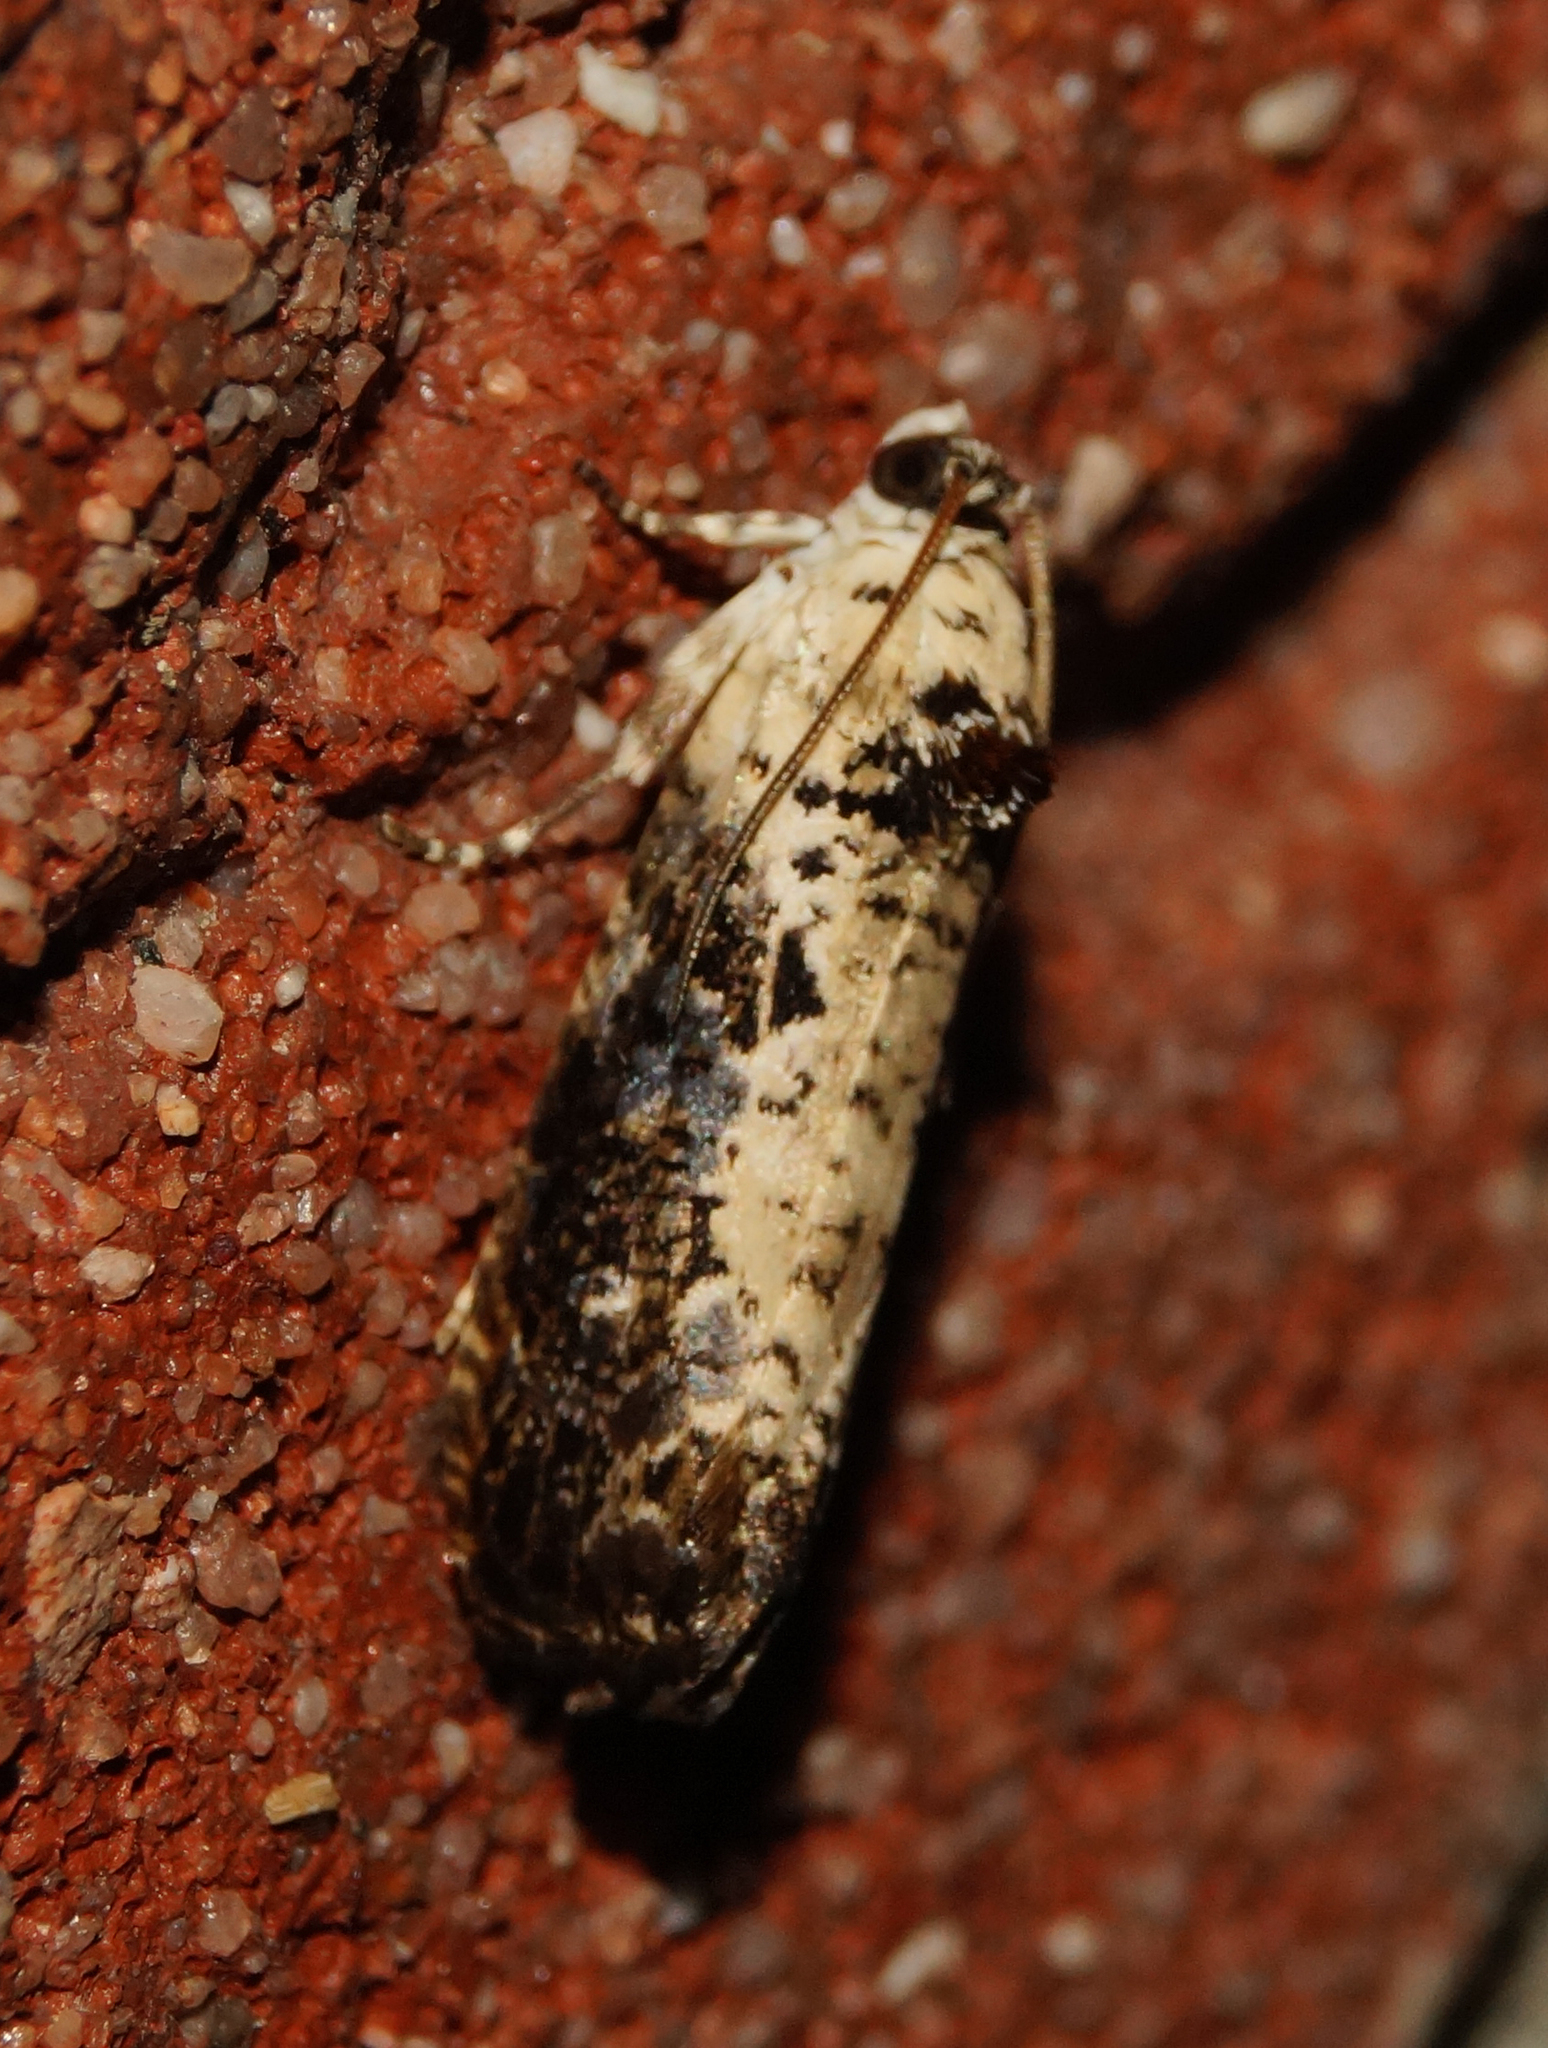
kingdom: Animalia
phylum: Arthropoda
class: Insecta
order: Lepidoptera
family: Tortricidae
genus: Hedya
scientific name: Hedya salicella
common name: Large tortricid moth
